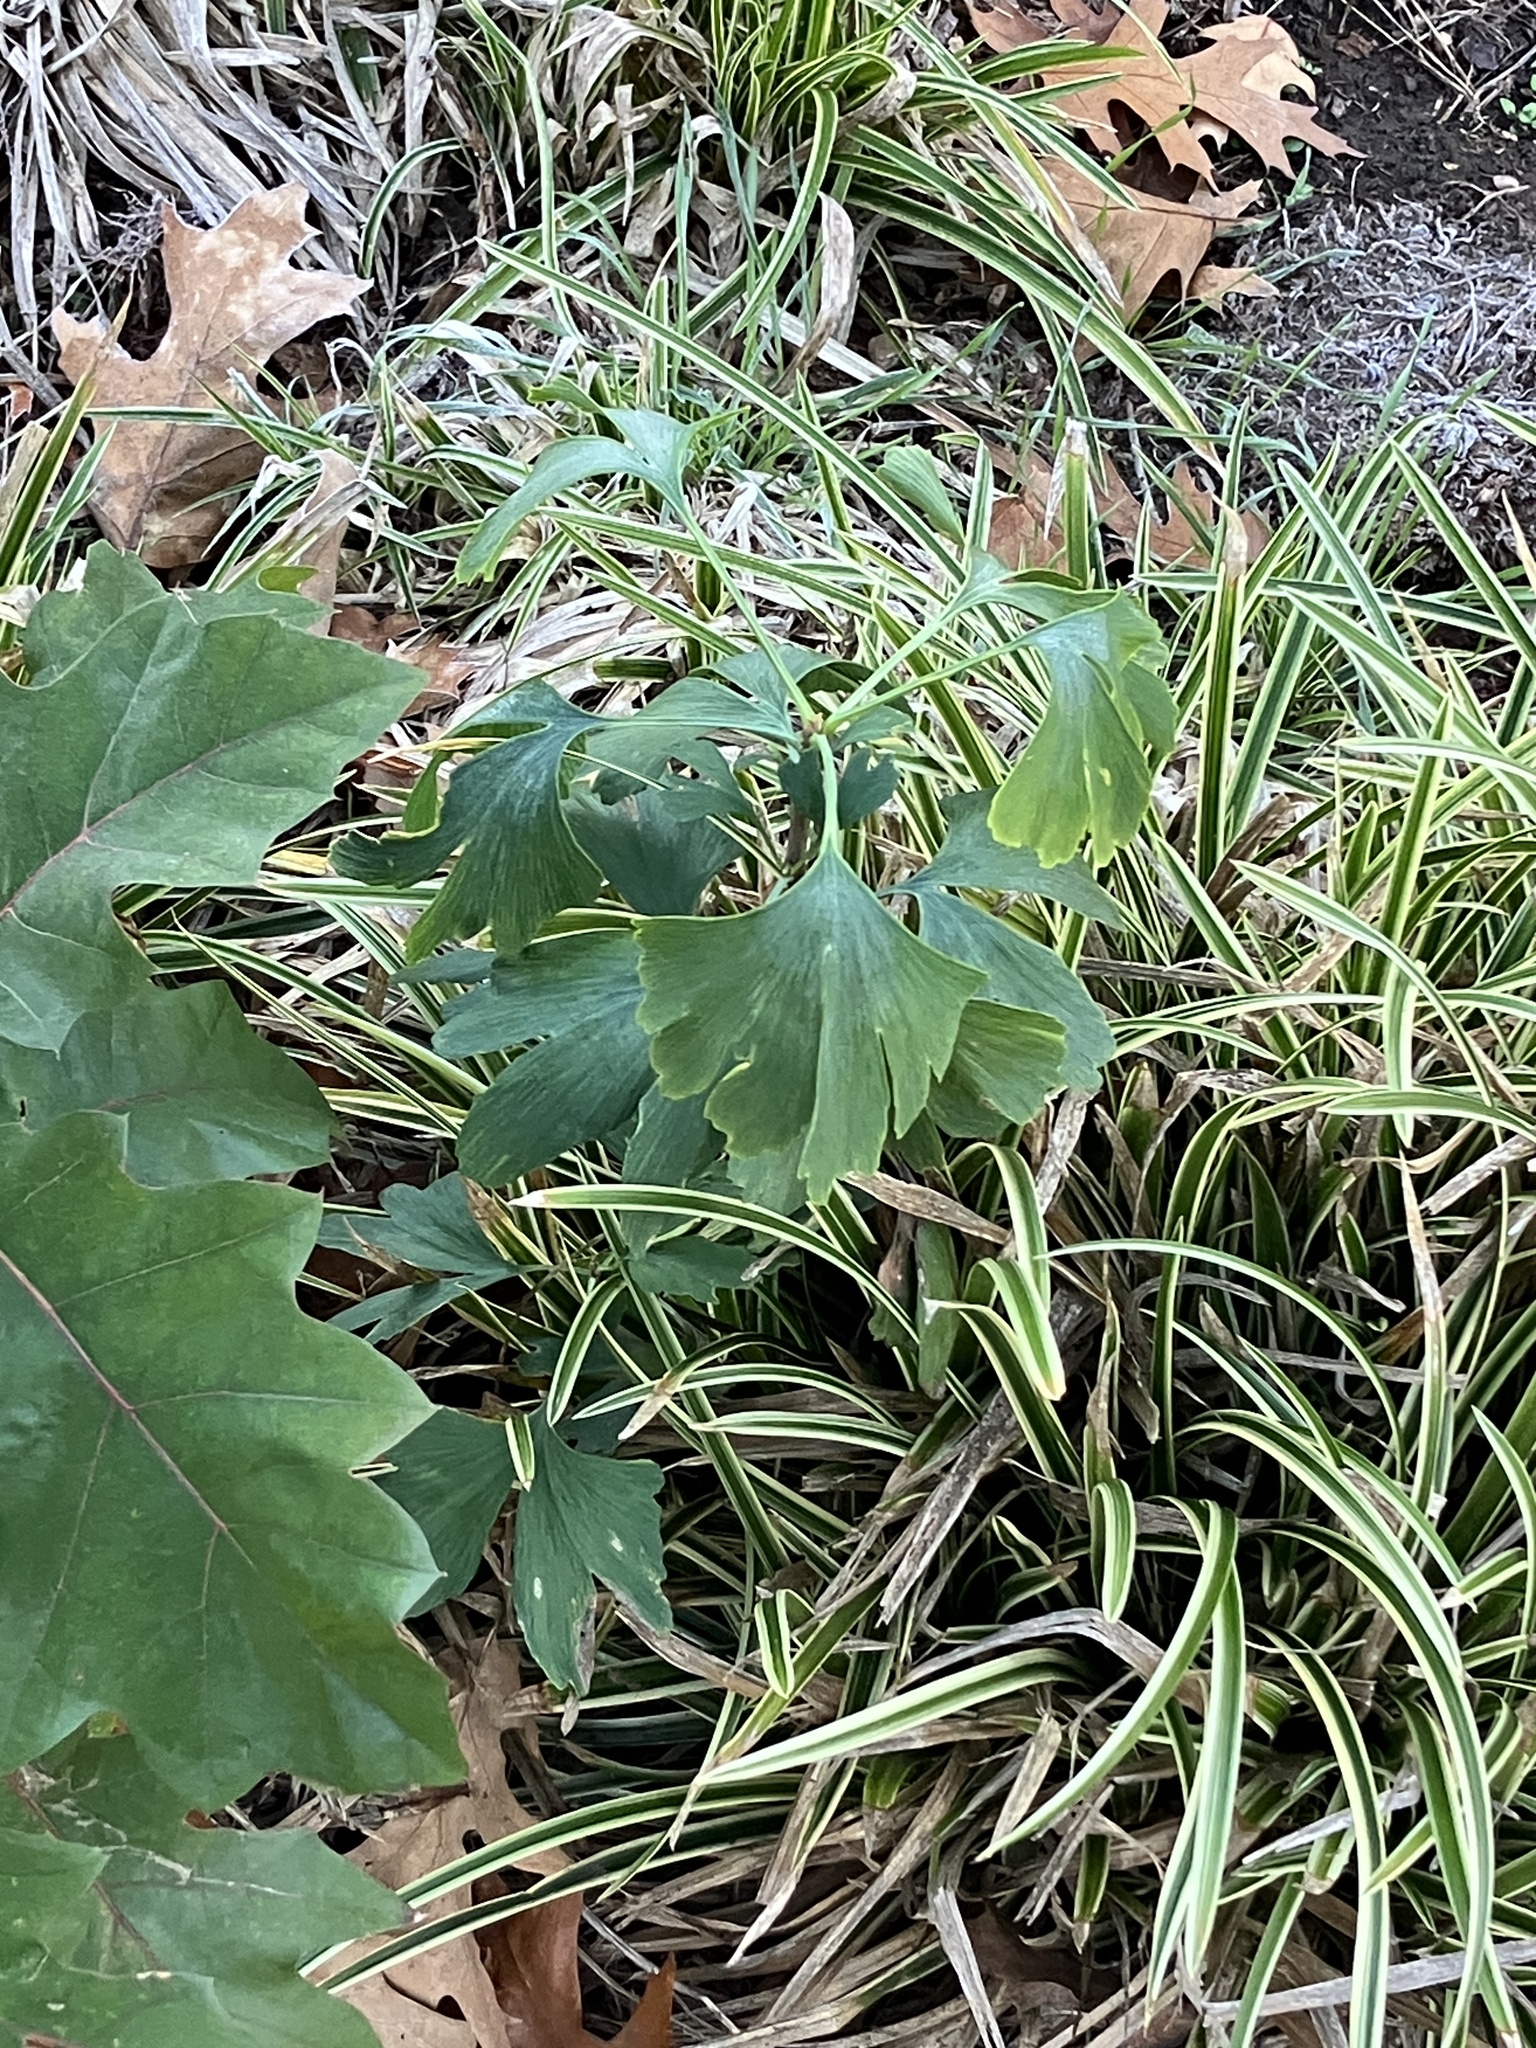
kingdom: Plantae
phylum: Tracheophyta
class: Ginkgoopsida
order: Ginkgoales
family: Ginkgoaceae
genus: Ginkgo
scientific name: Ginkgo biloba
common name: Ginkgo
